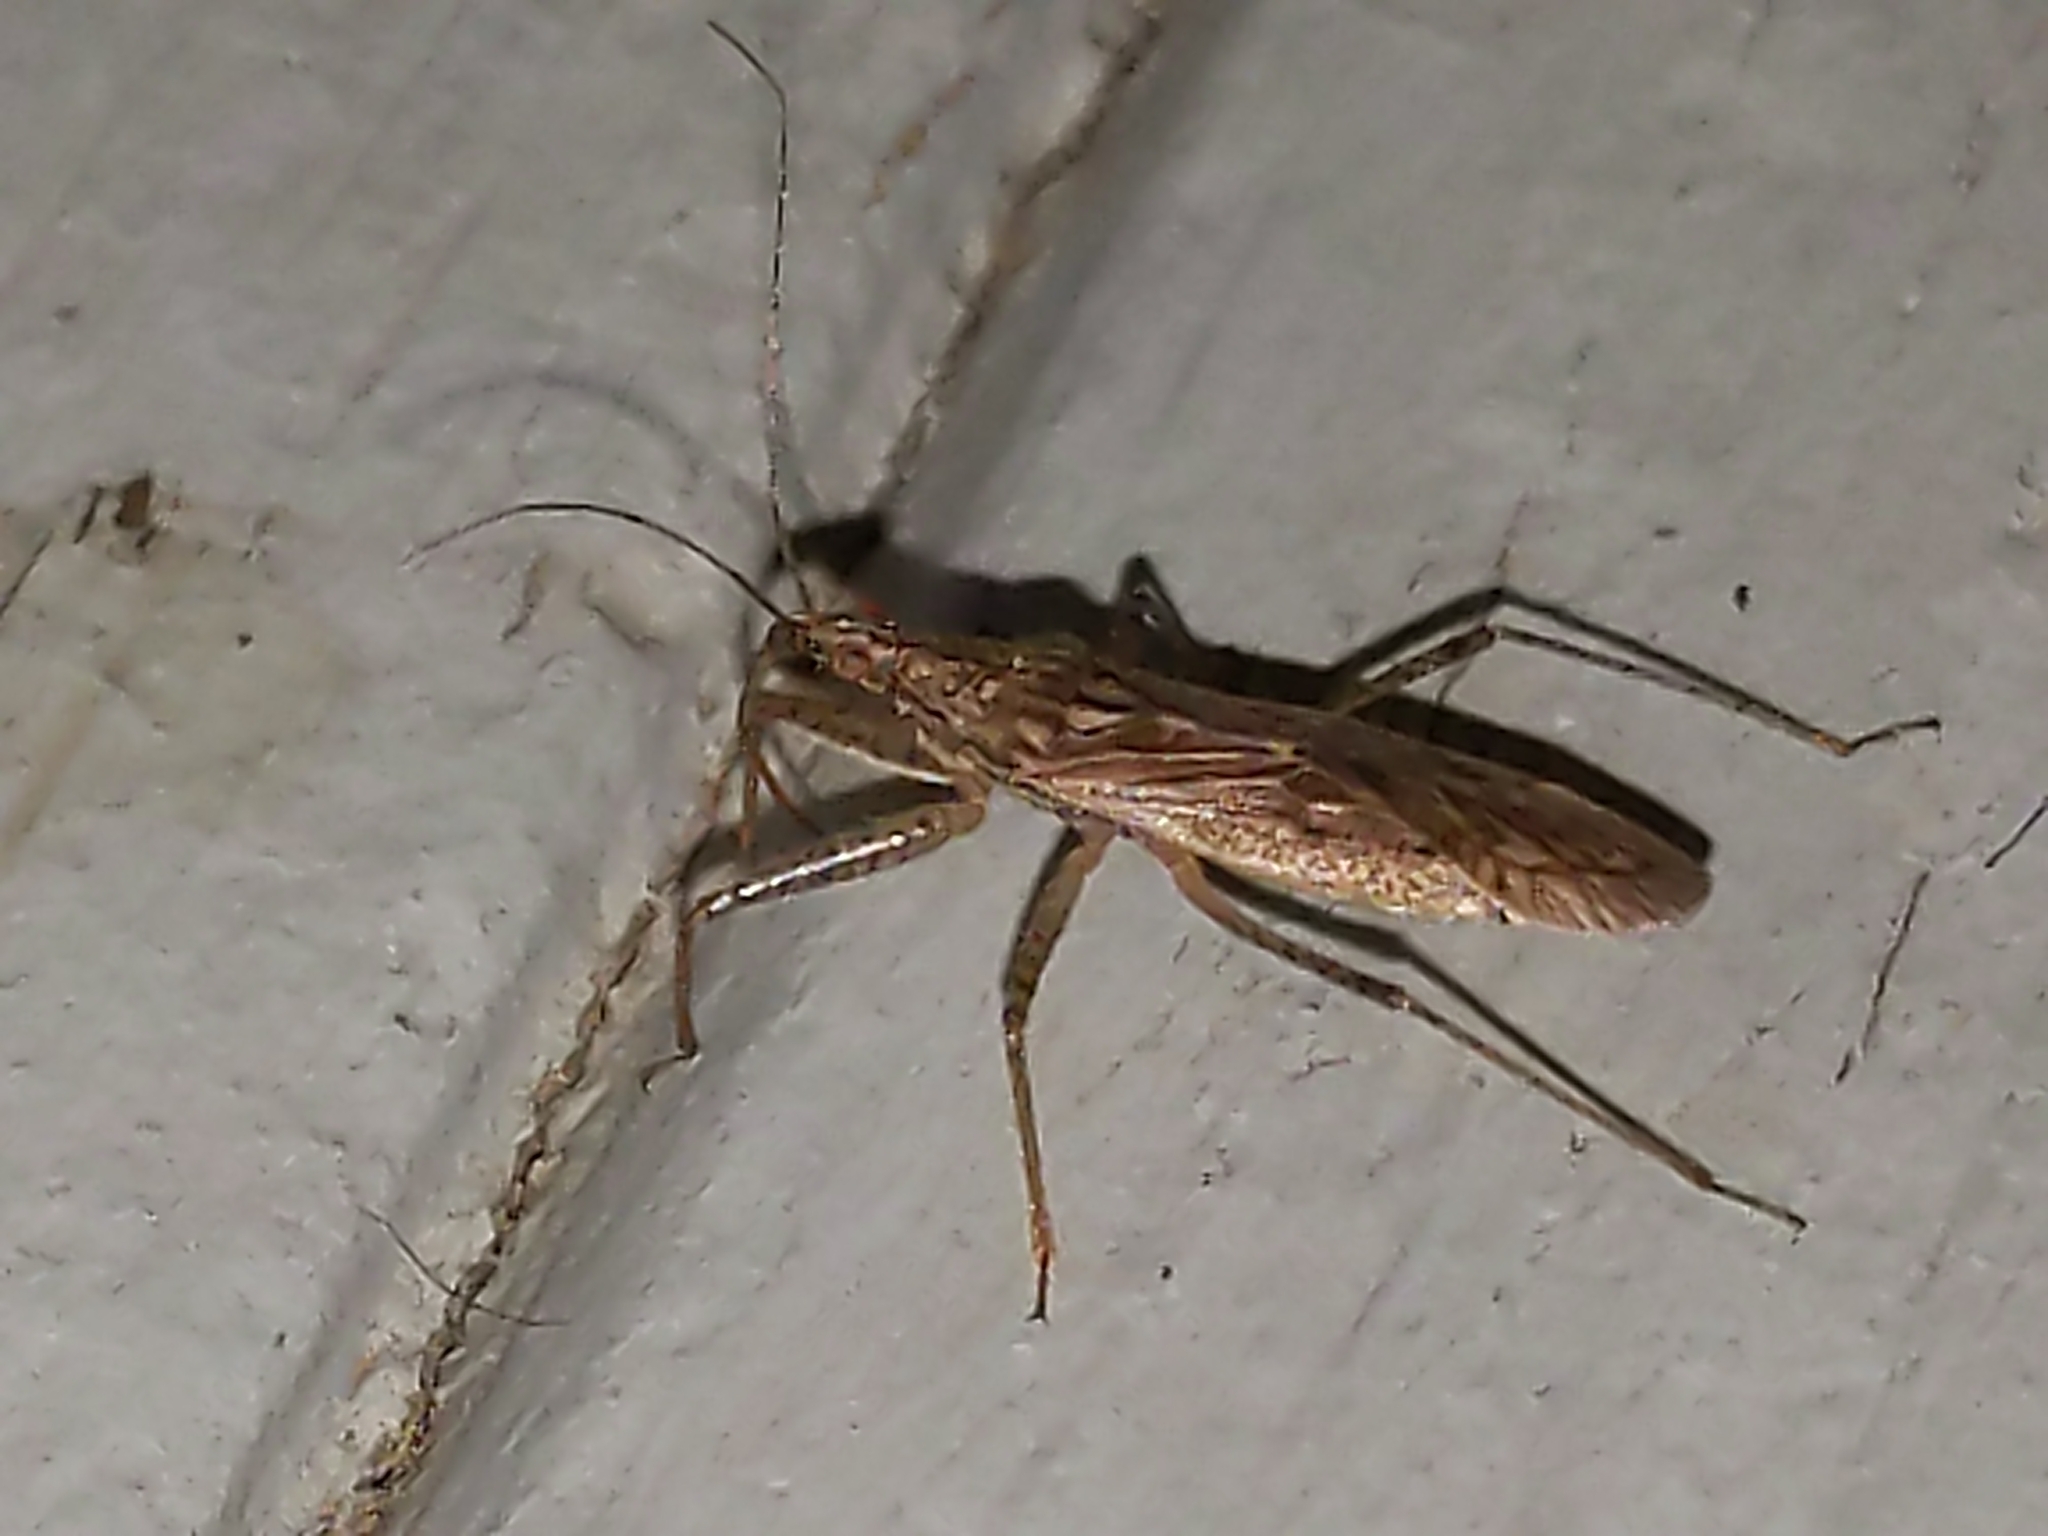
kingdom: Animalia
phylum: Arthropoda
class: Insecta
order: Hemiptera
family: Nabidae
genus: Nabis
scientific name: Nabis
